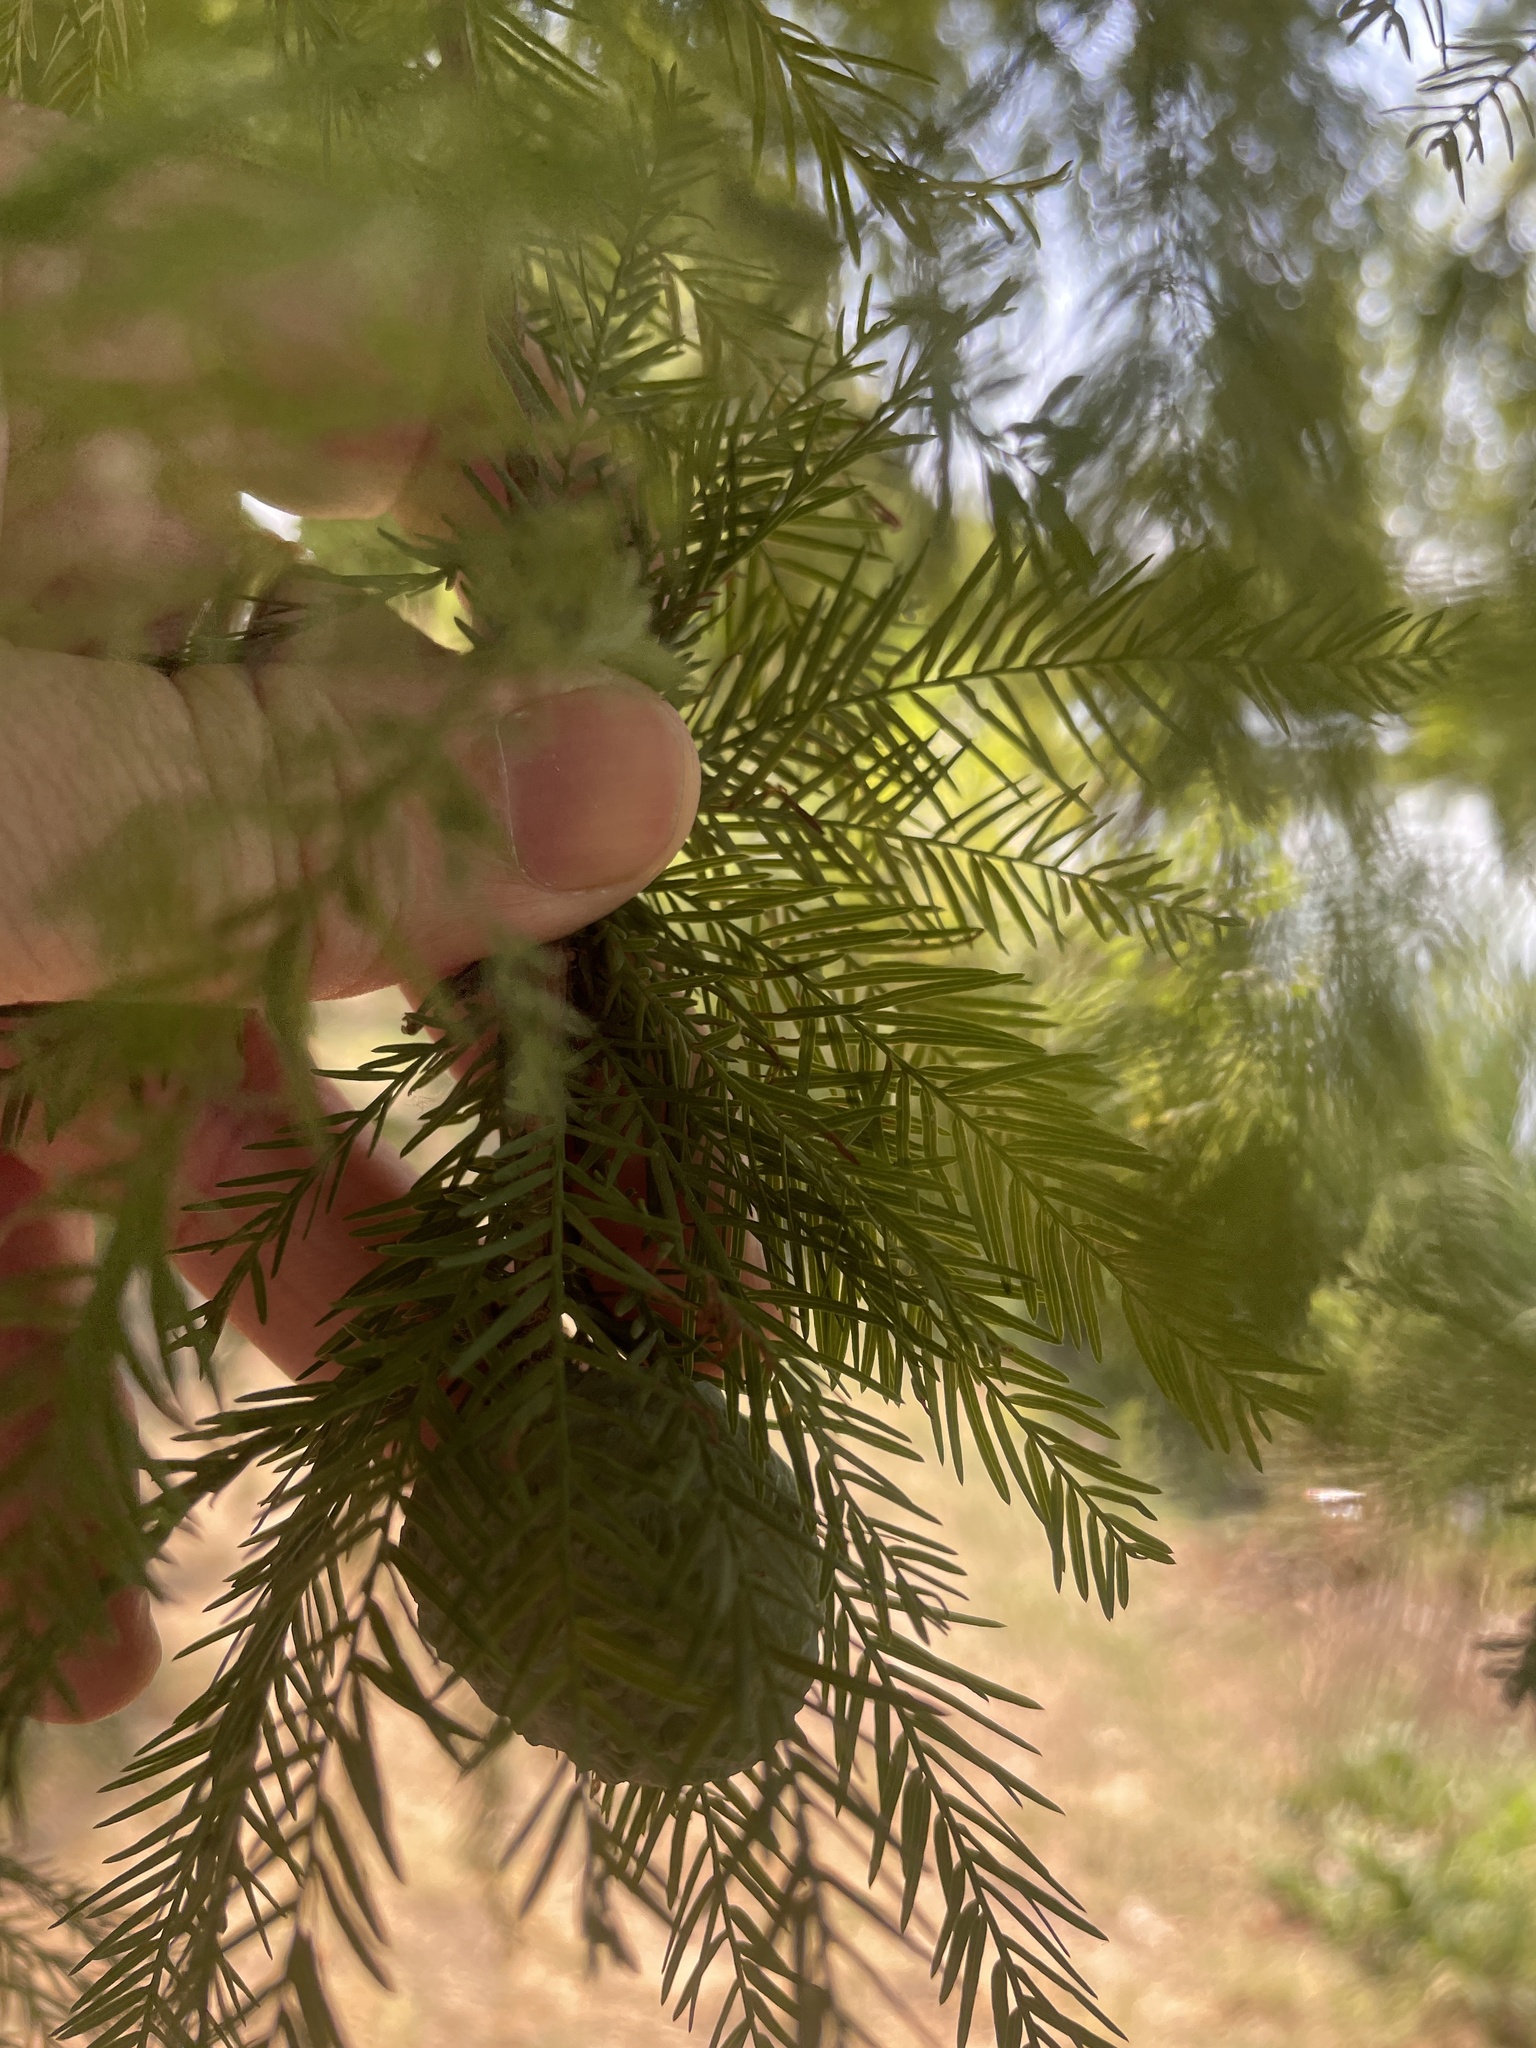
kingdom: Plantae
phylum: Tracheophyta
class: Pinopsida
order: Pinales
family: Cupressaceae
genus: Taxodium
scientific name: Taxodium distichum
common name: Bald cypress
